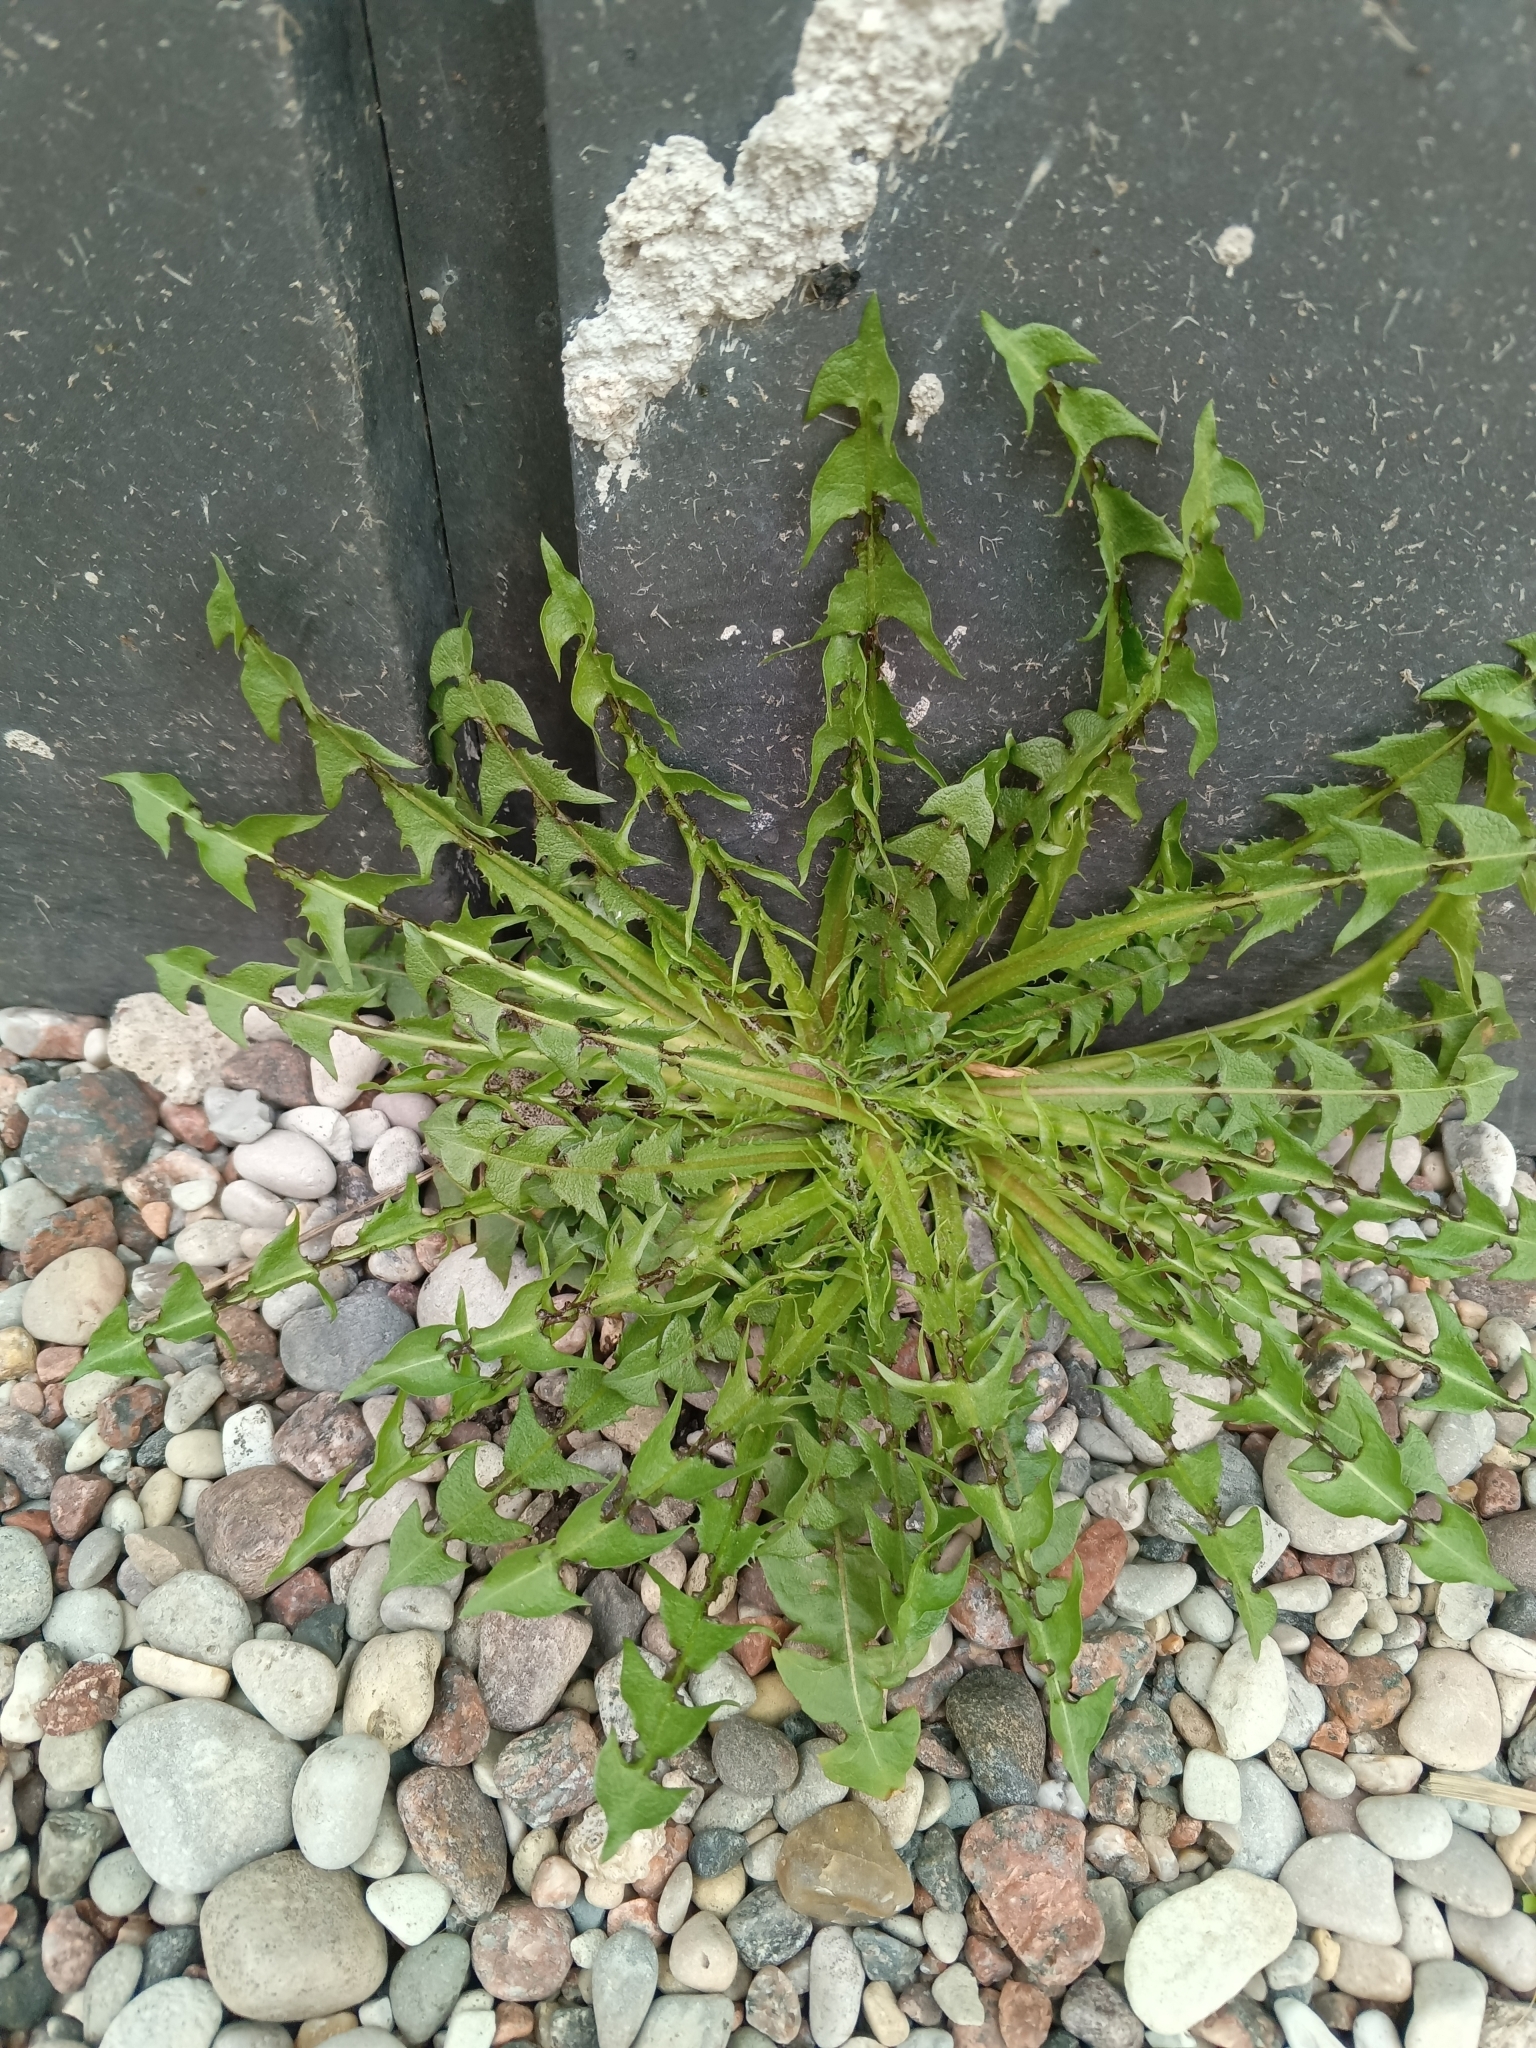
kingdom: Plantae
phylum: Tracheophyta
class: Magnoliopsida
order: Asterales
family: Asteraceae
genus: Taraxacum
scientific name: Taraxacum officinale
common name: Common dandelion
